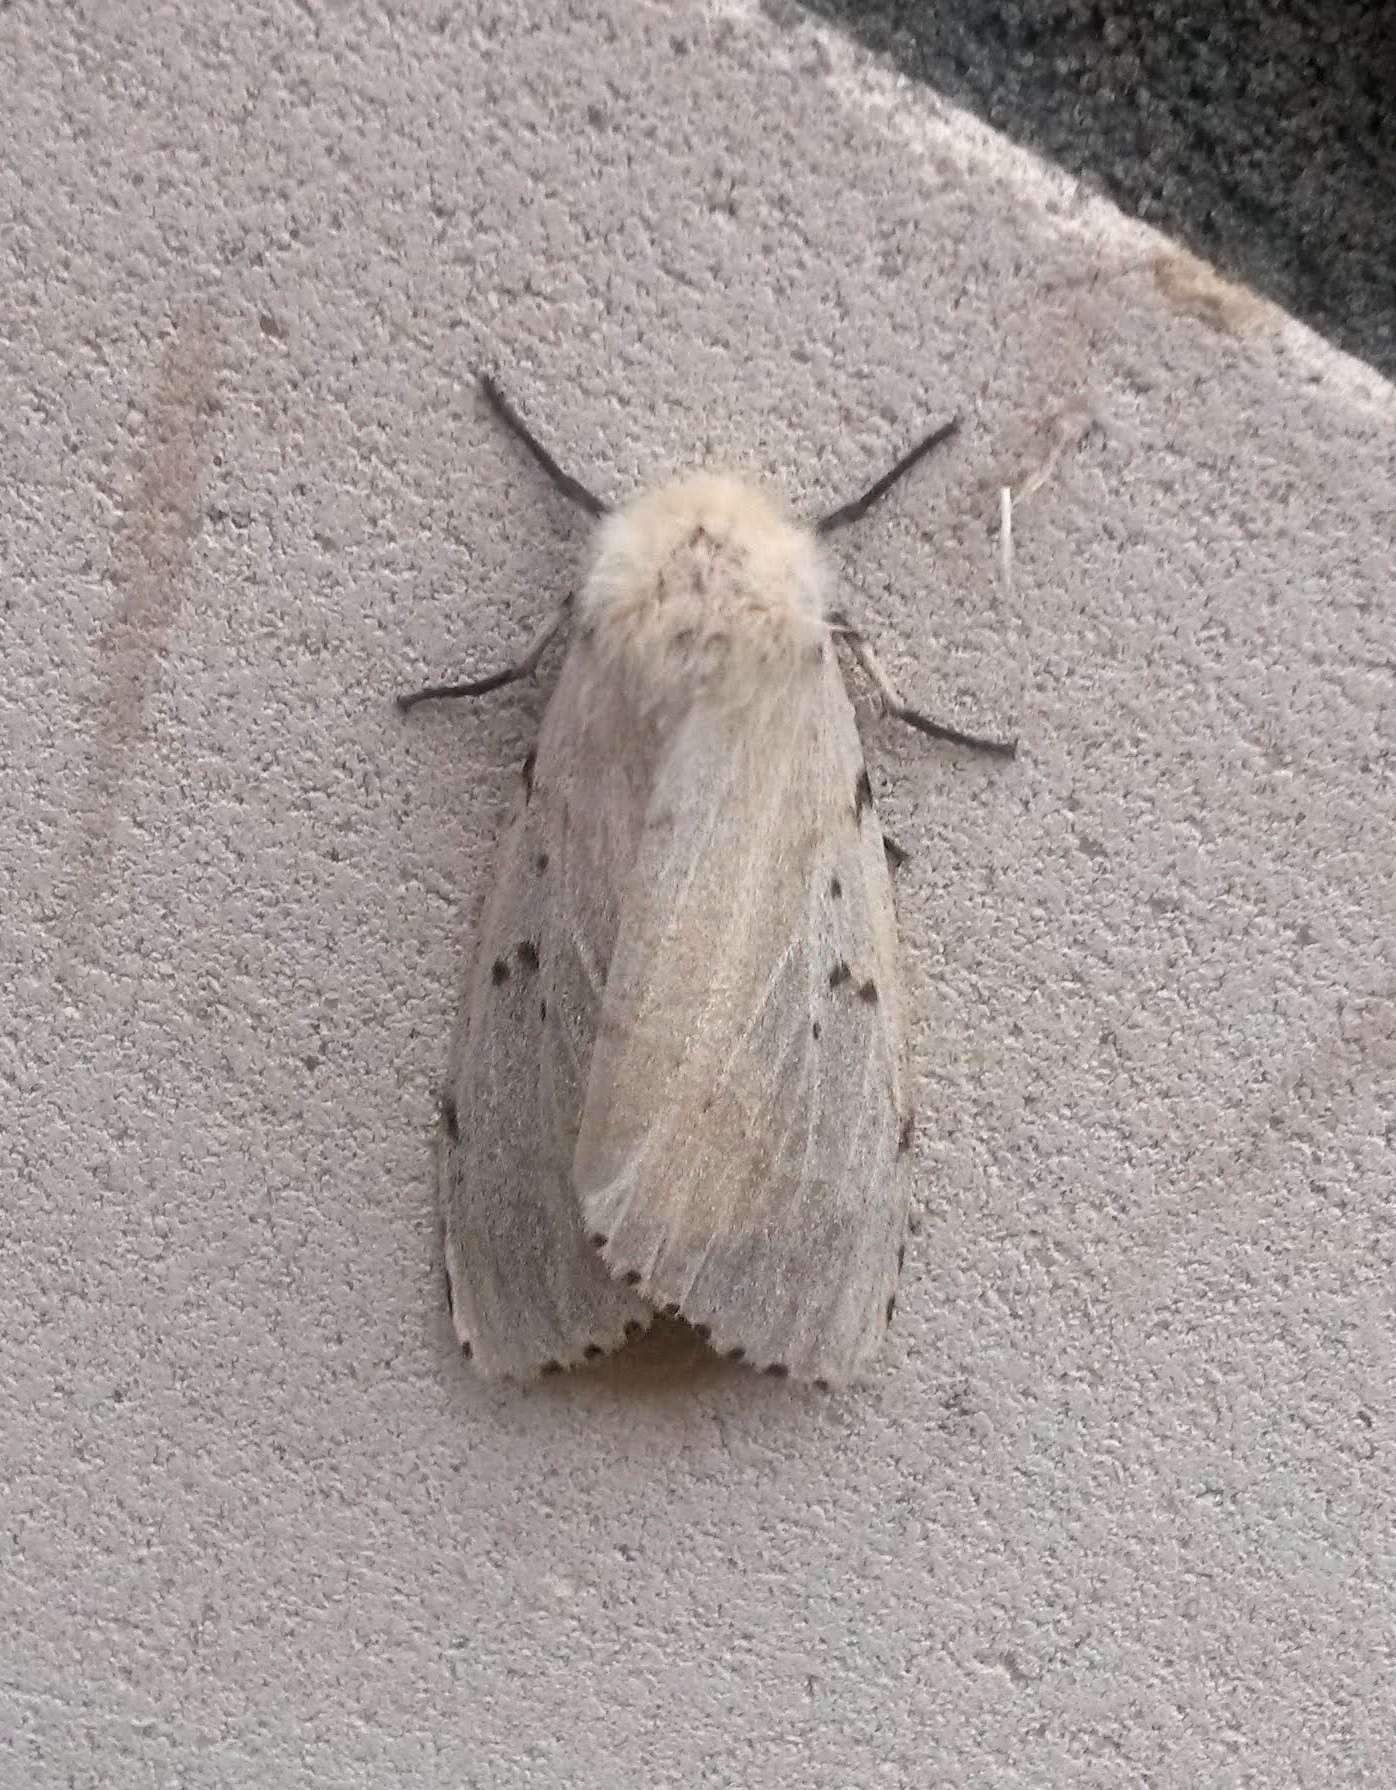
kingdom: Animalia
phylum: Arthropoda
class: Insecta
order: Lepidoptera
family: Erebidae
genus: Lymantria
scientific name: Lymantria dispar
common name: Gypsy moth
